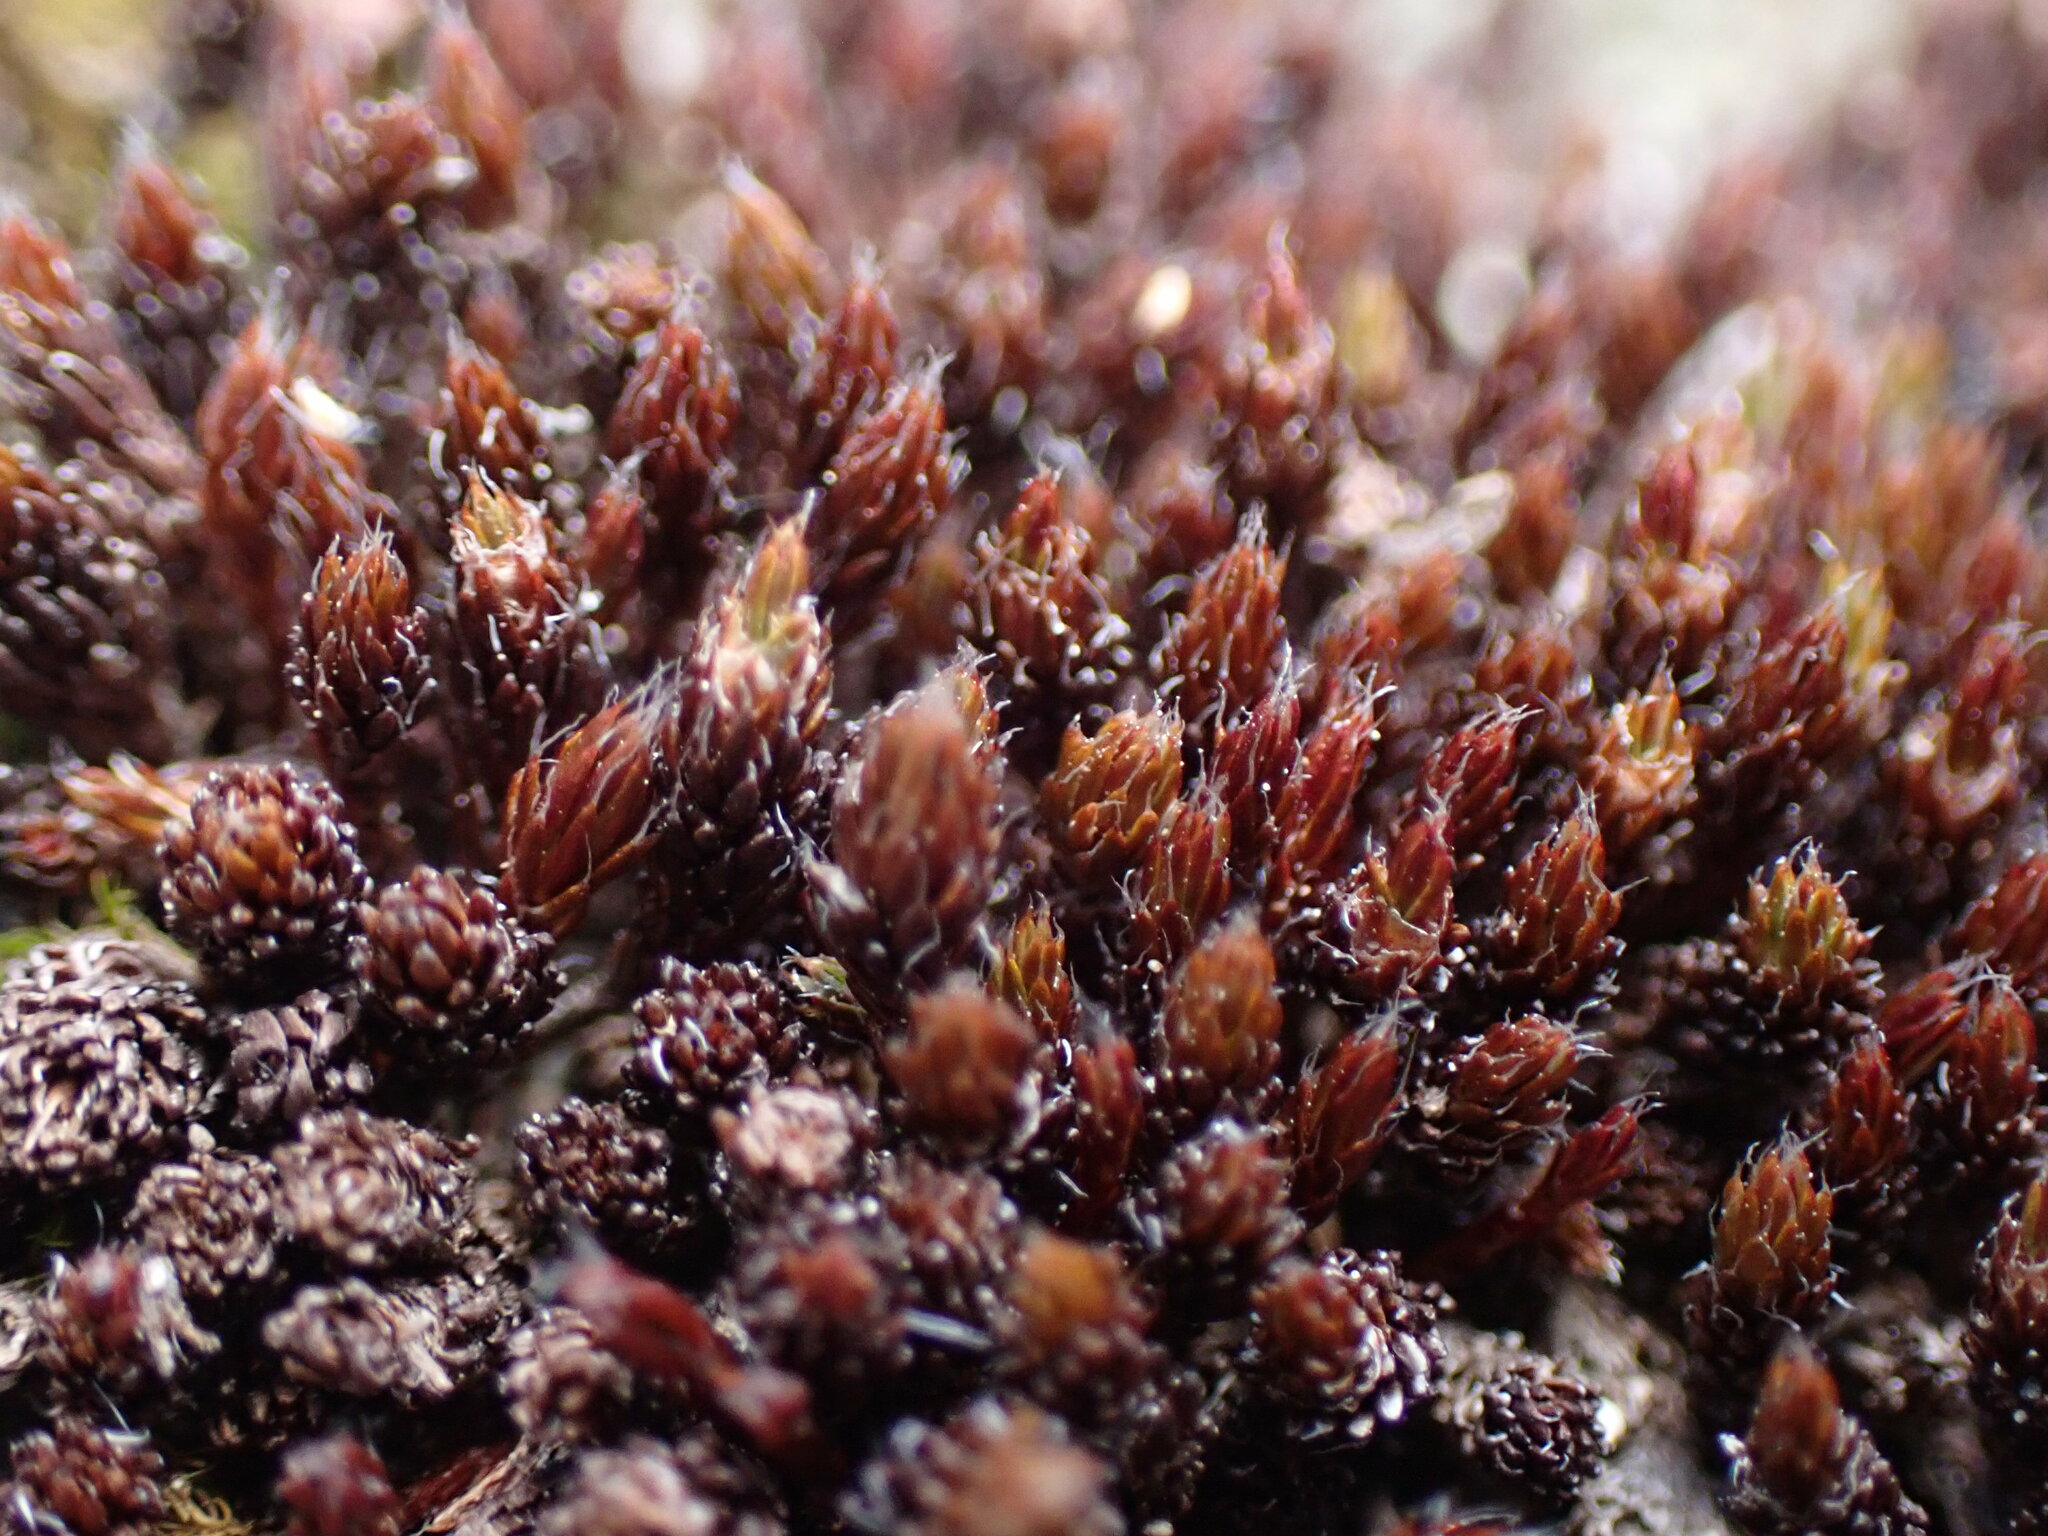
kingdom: Plantae
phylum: Bryophyta
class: Polytrichopsida
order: Polytrichales
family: Polytrichaceae
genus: Polytrichum
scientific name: Polytrichum piliferum
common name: Bristly haircap
